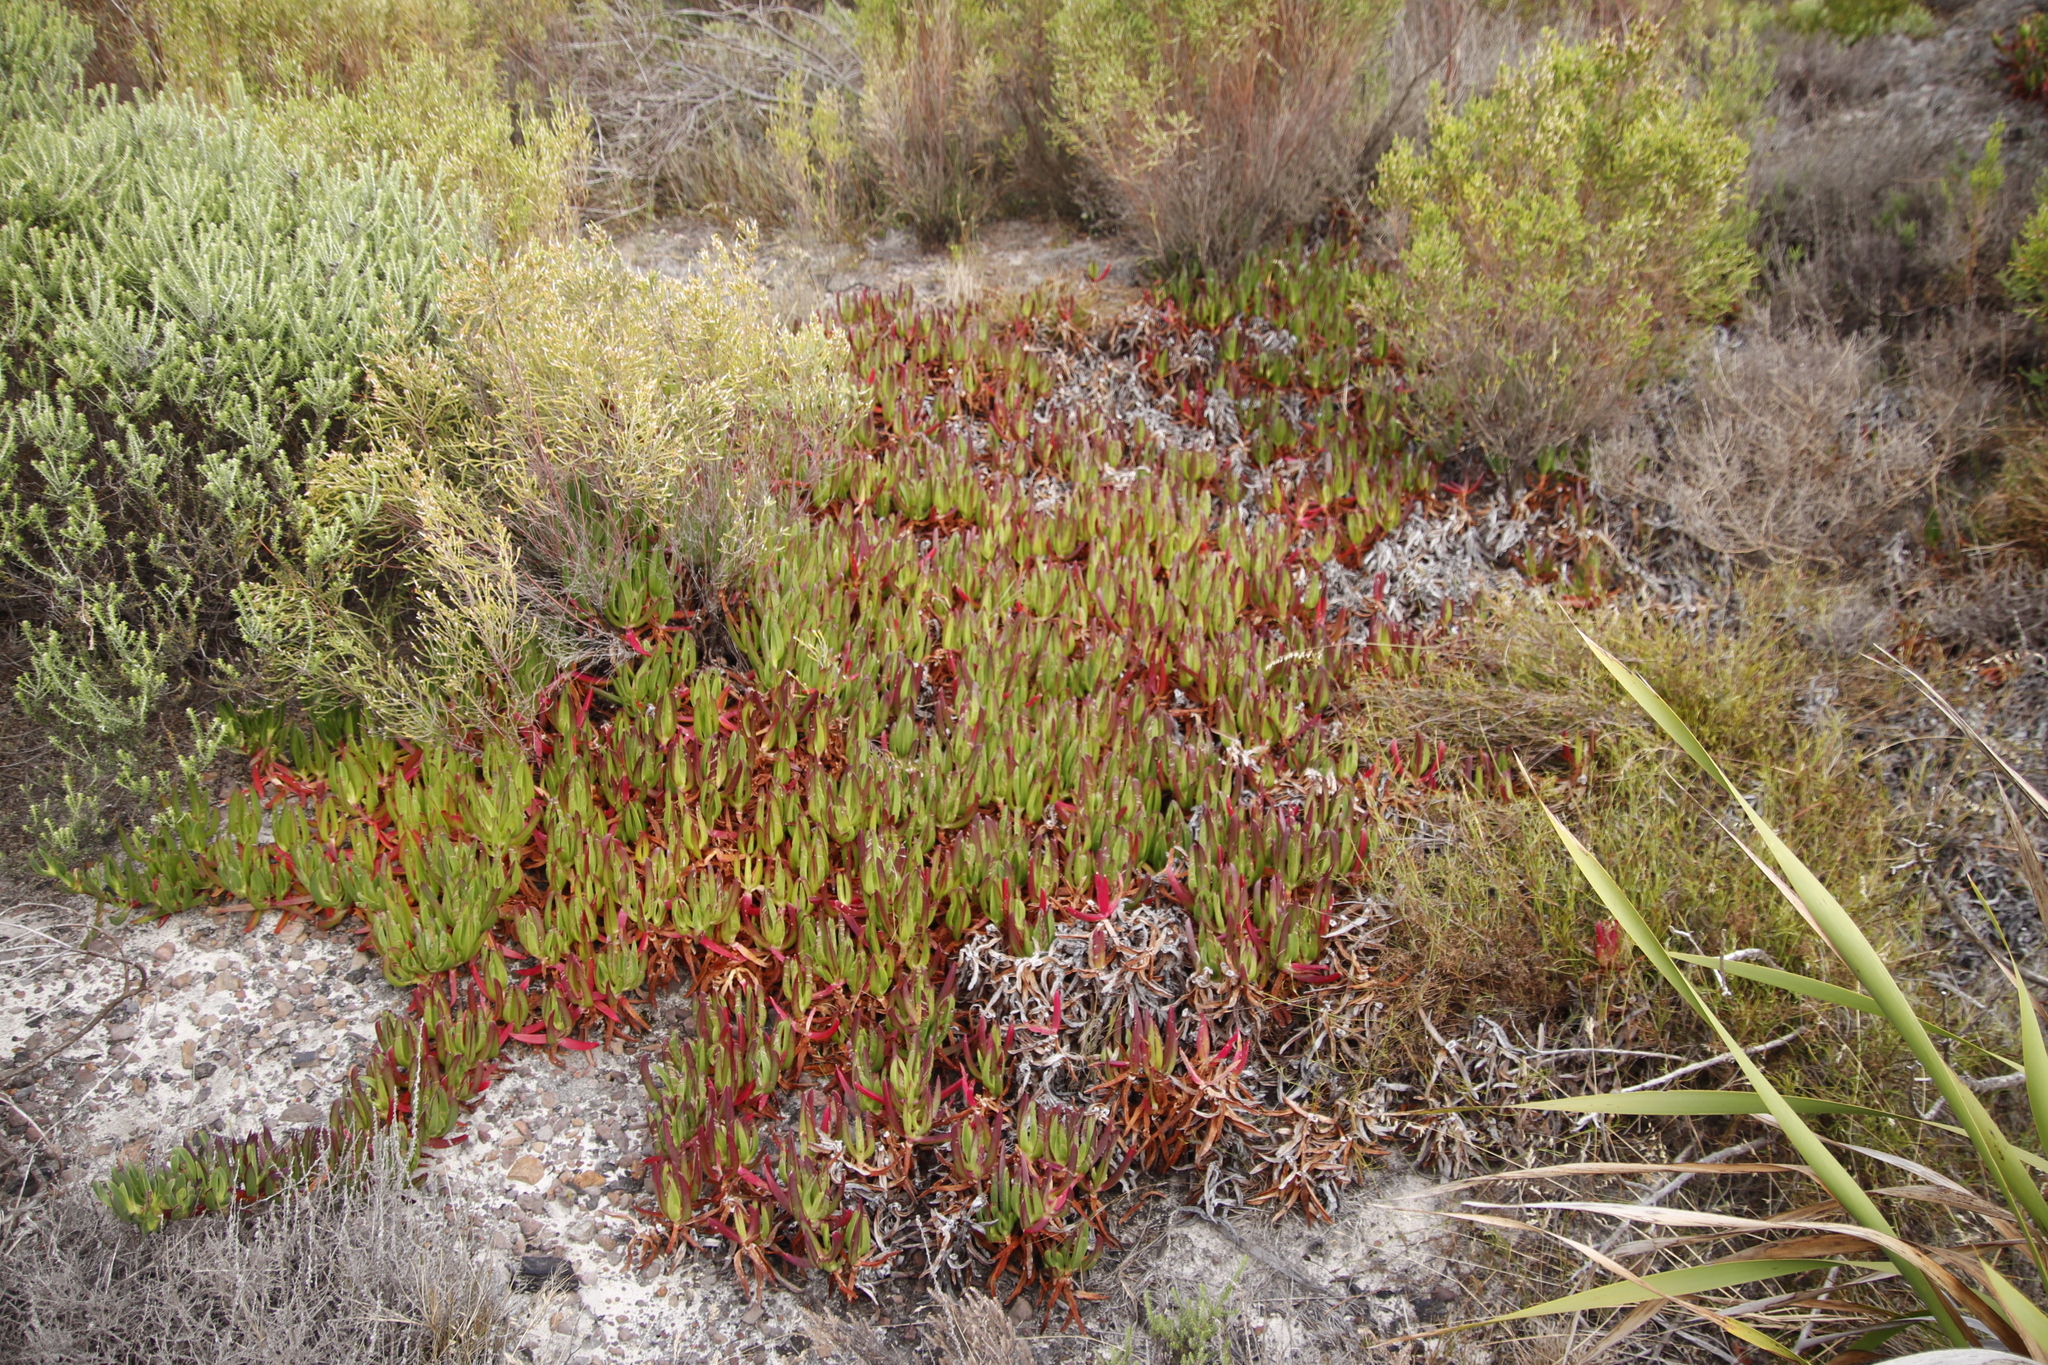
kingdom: Plantae
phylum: Tracheophyta
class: Magnoliopsida
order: Caryophyllales
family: Aizoaceae
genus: Carpobrotus
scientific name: Carpobrotus edulis
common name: Hottentot-fig
